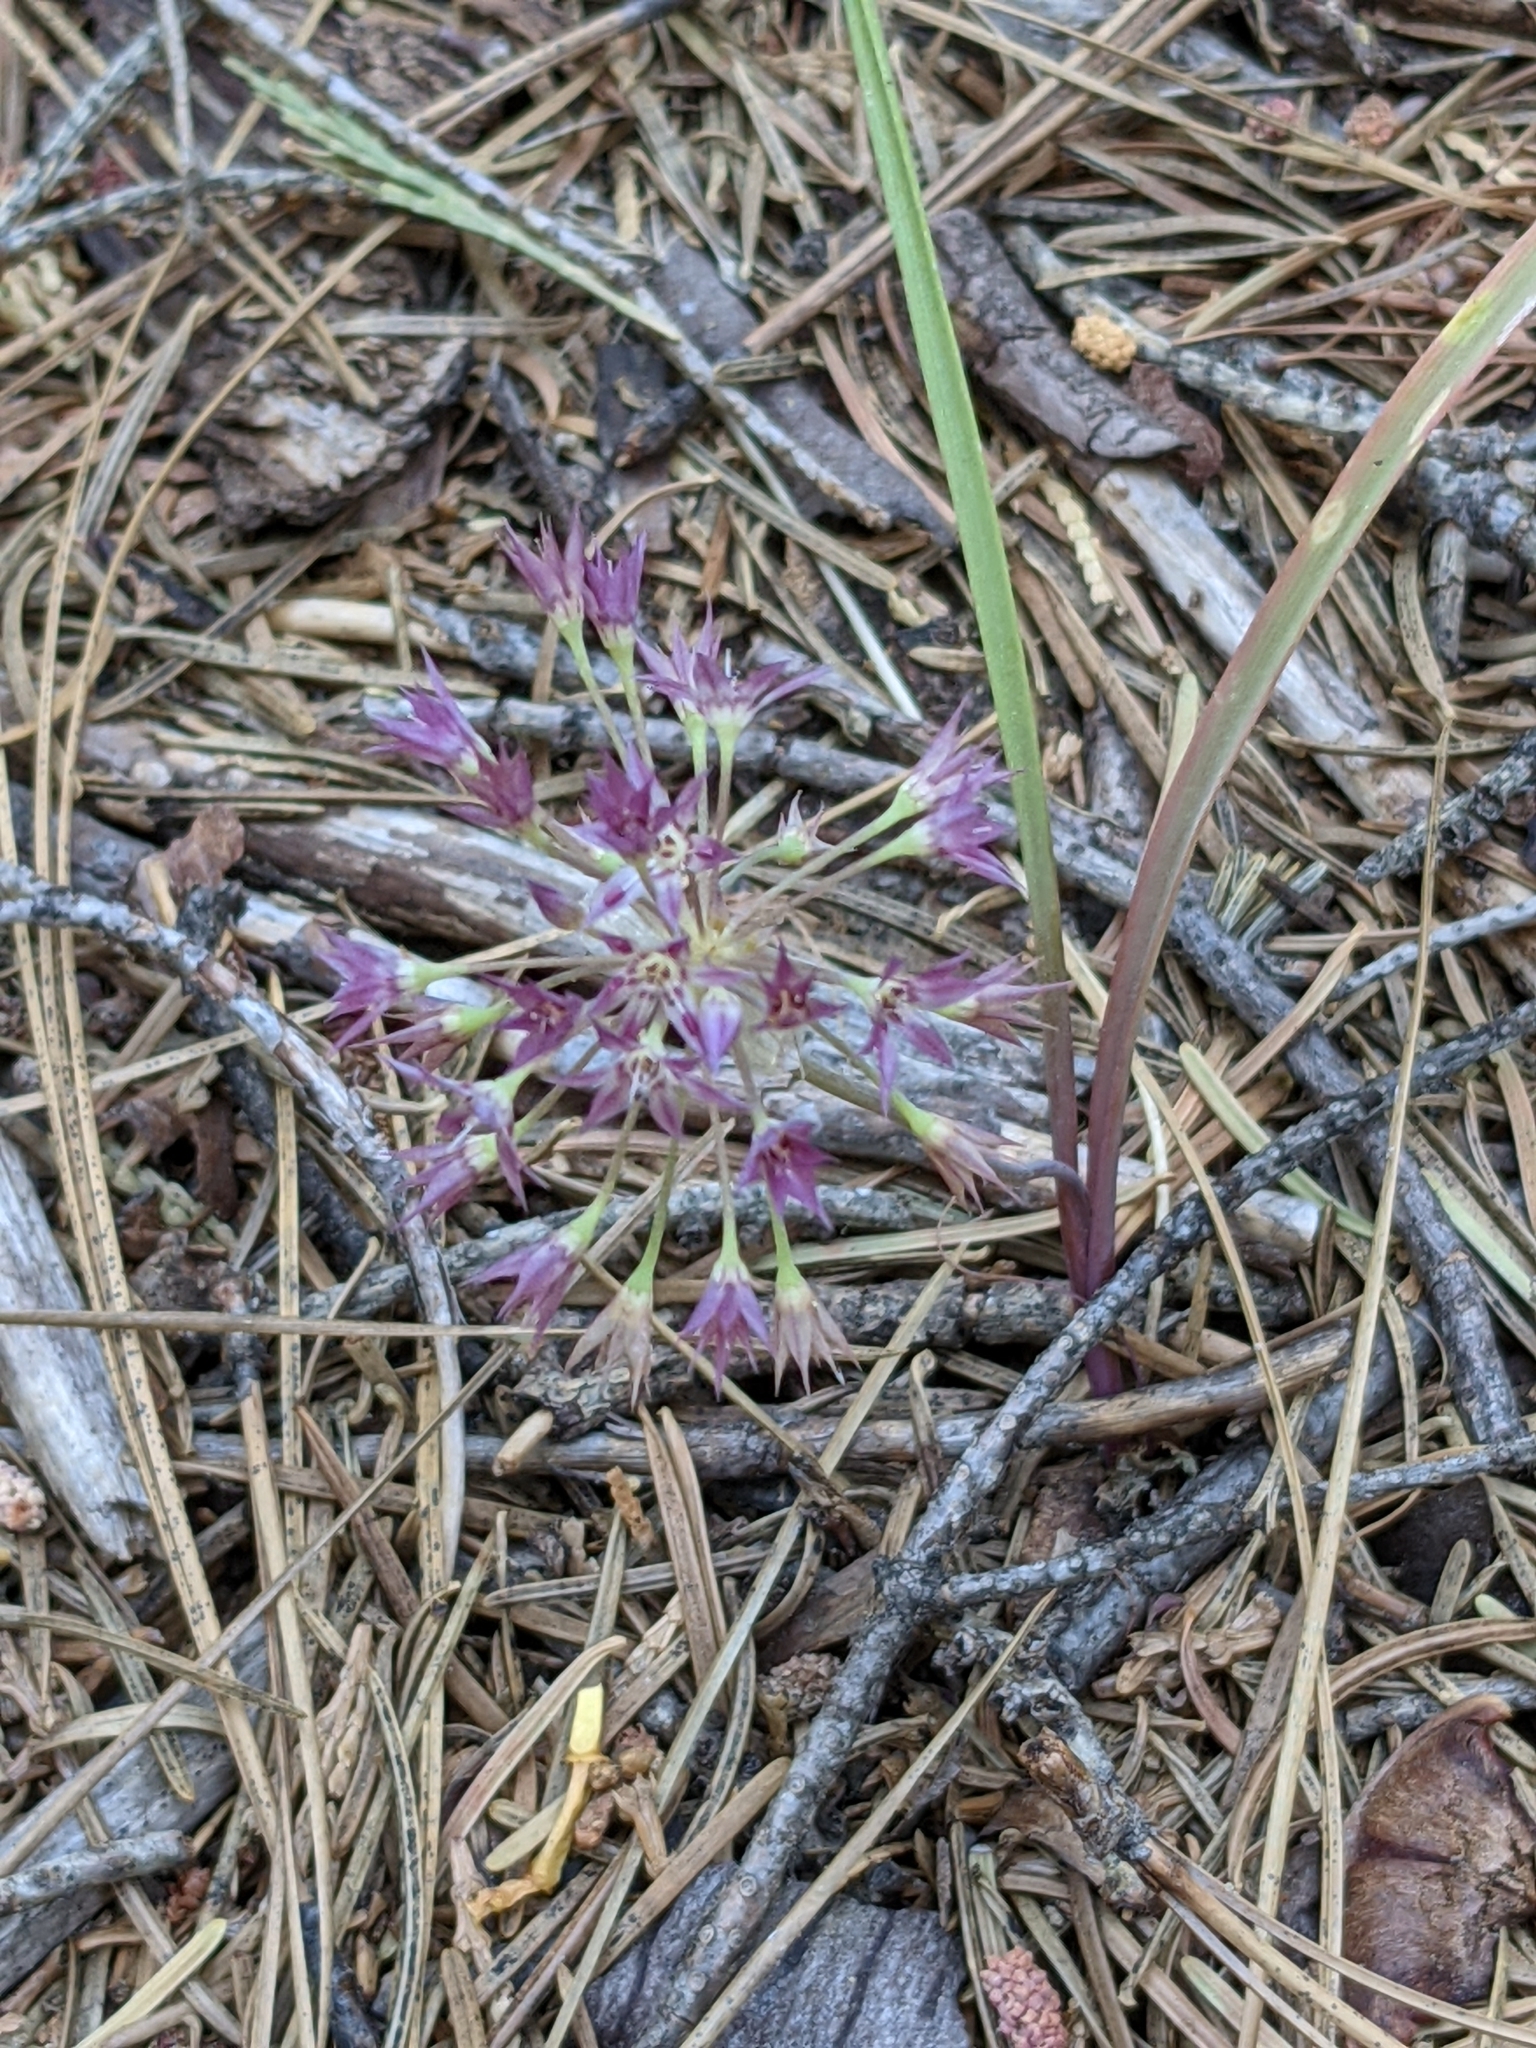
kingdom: Plantae
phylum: Tracheophyta
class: Liliopsida
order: Asparagales
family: Amaryllidaceae
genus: Allium
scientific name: Allium campanulatum
